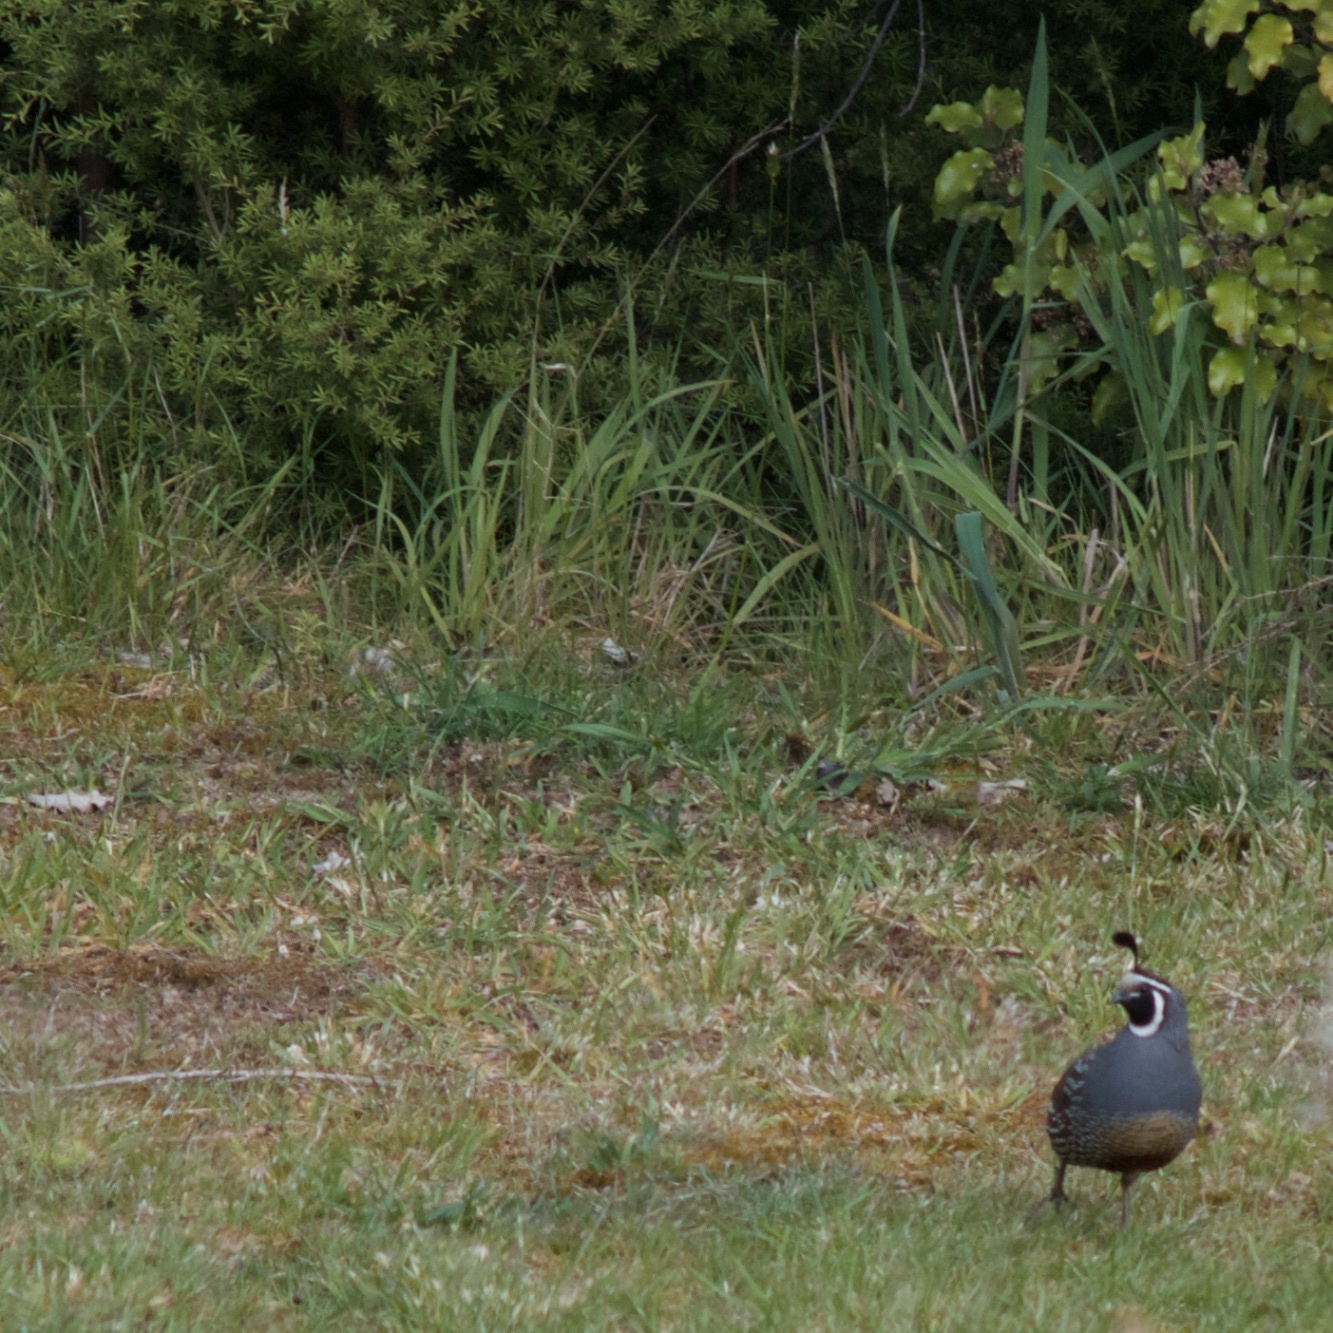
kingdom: Animalia
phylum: Chordata
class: Aves
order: Galliformes
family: Odontophoridae
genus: Callipepla
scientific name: Callipepla californica
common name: California quail
